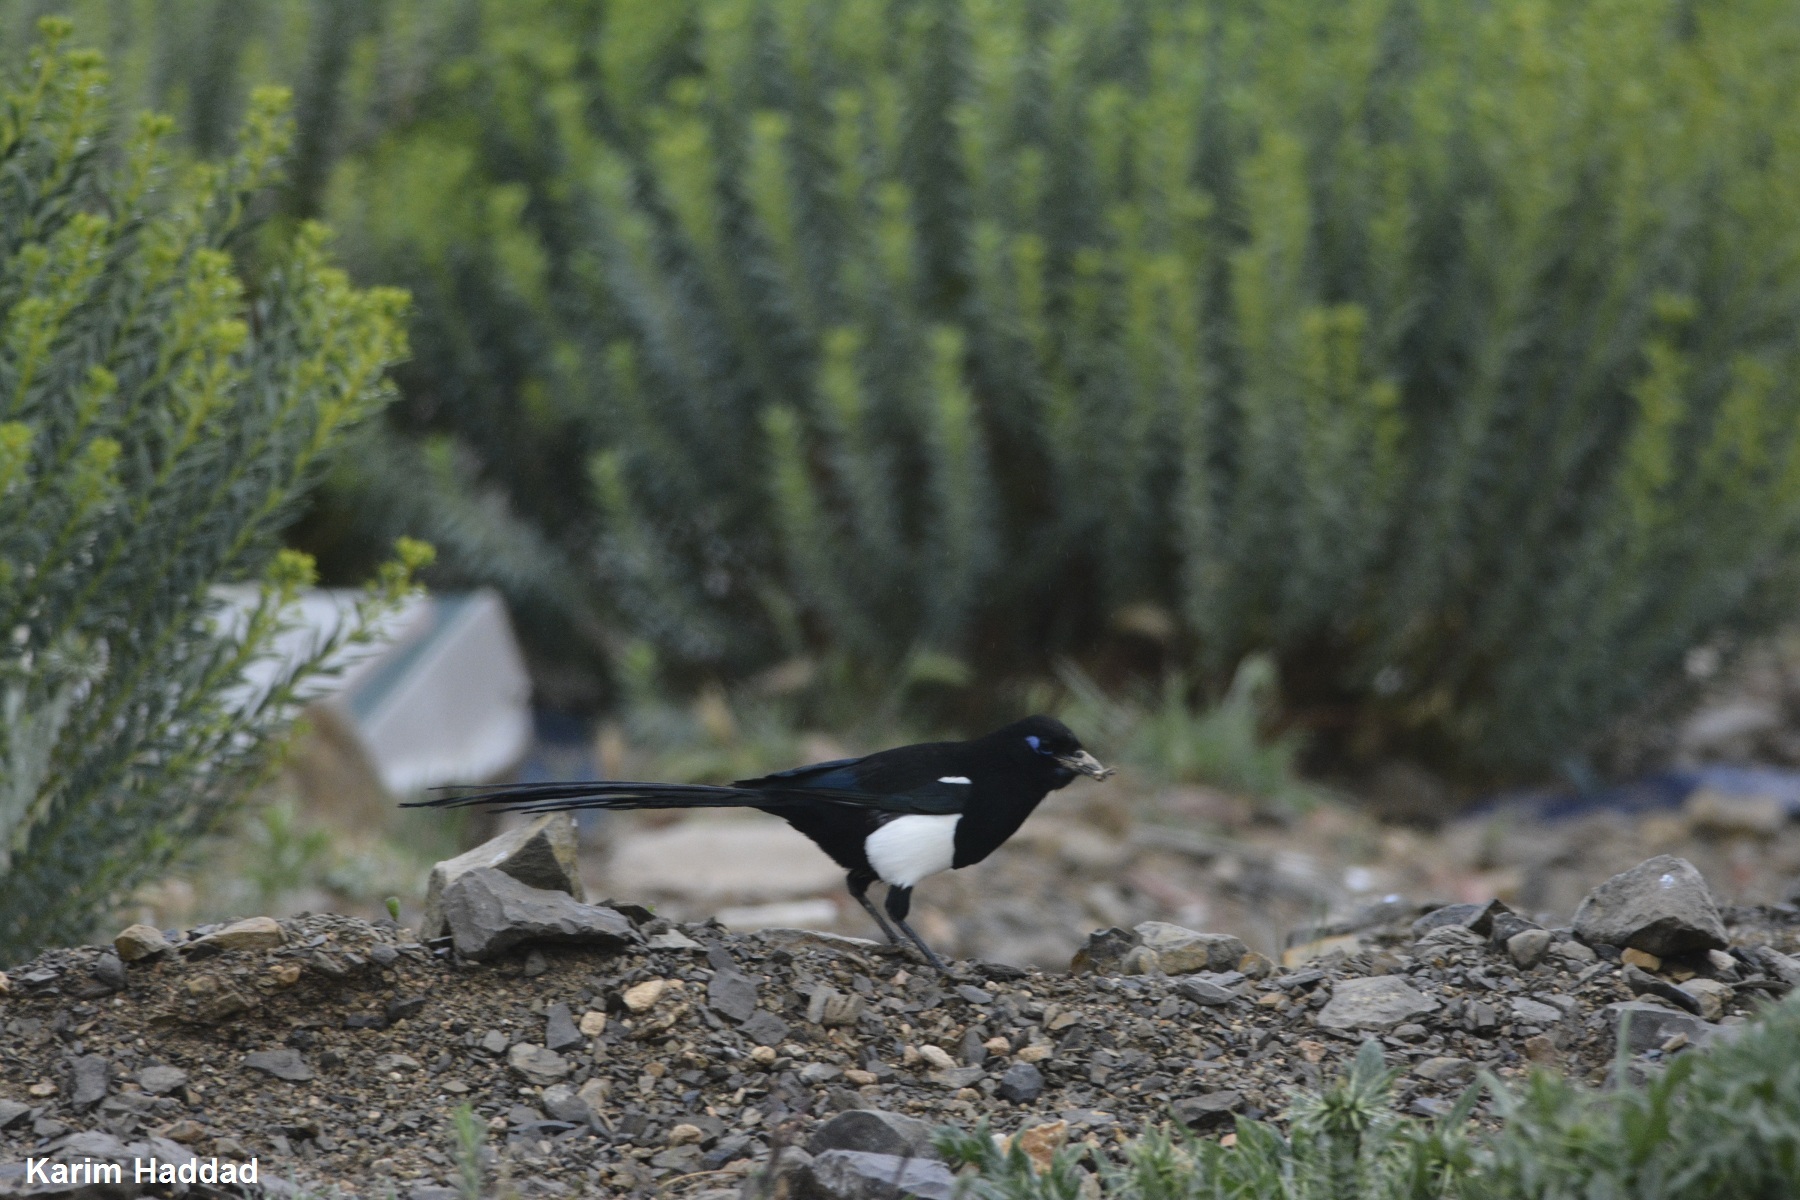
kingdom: Animalia
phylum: Chordata
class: Aves
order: Passeriformes
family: Corvidae
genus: Pica
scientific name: Pica mauritanica
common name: Maghreb magpie
